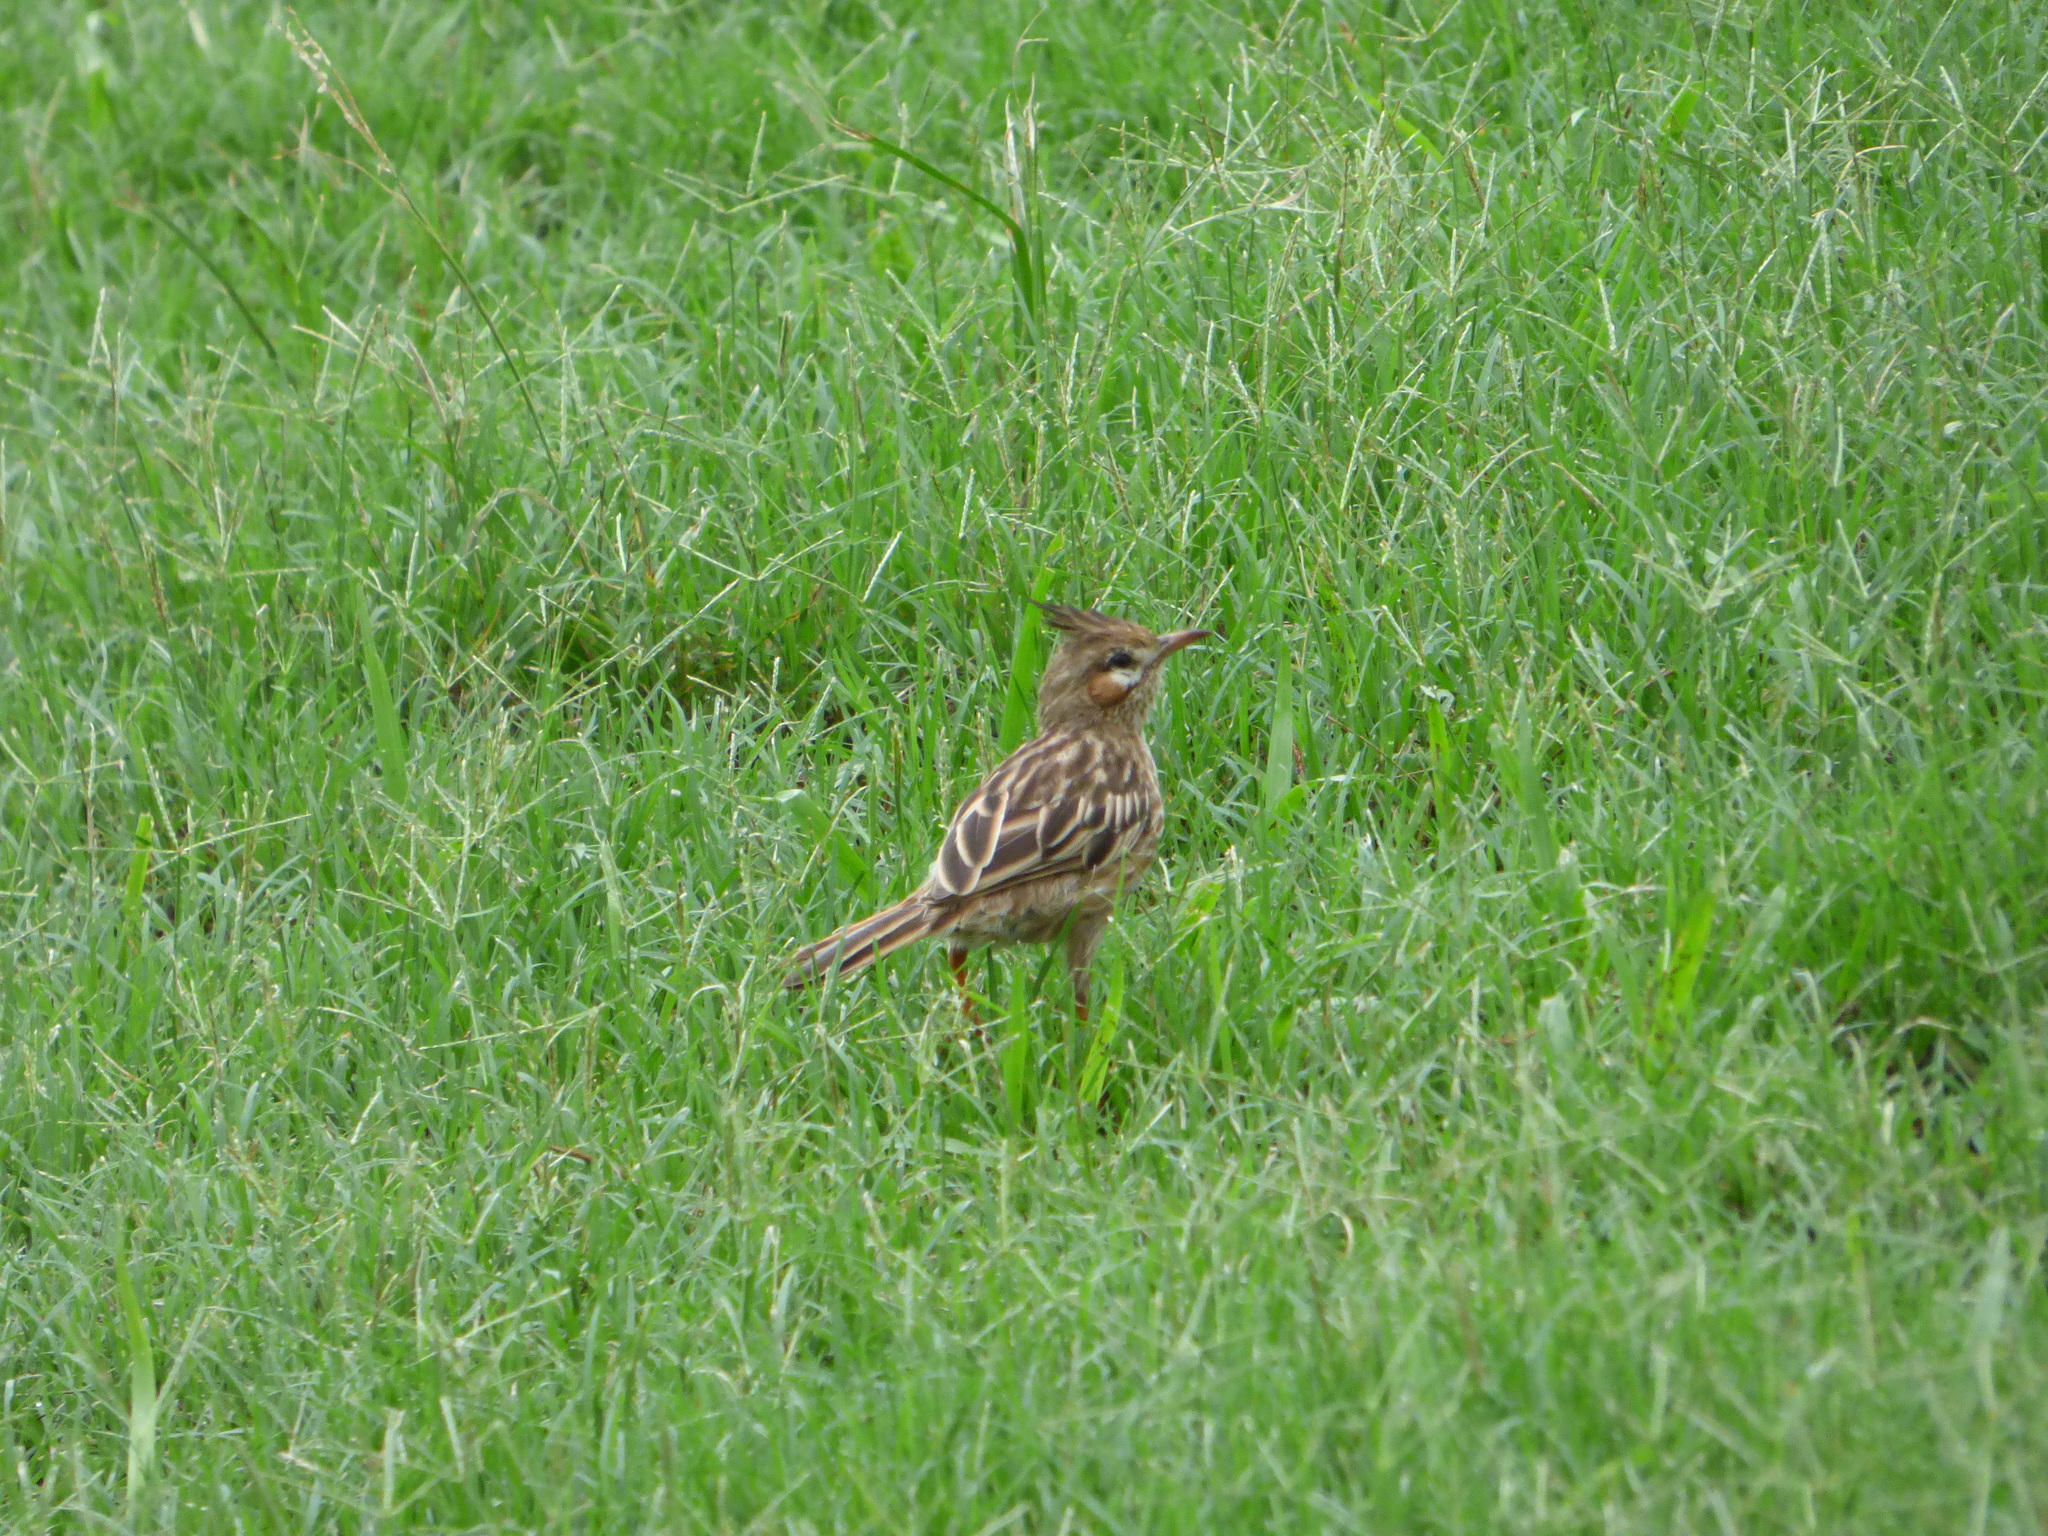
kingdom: Animalia
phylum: Chordata
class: Aves
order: Passeriformes
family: Furnariidae
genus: Coryphistera
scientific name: Coryphistera alaudina
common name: Lark-like brushrunner
